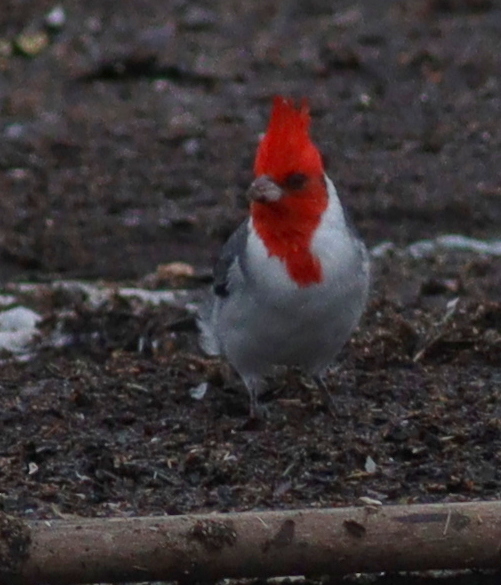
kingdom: Animalia
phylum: Chordata
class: Aves
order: Passeriformes
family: Thraupidae
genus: Paroaria
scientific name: Paroaria coronata
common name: Red-crested cardinal
